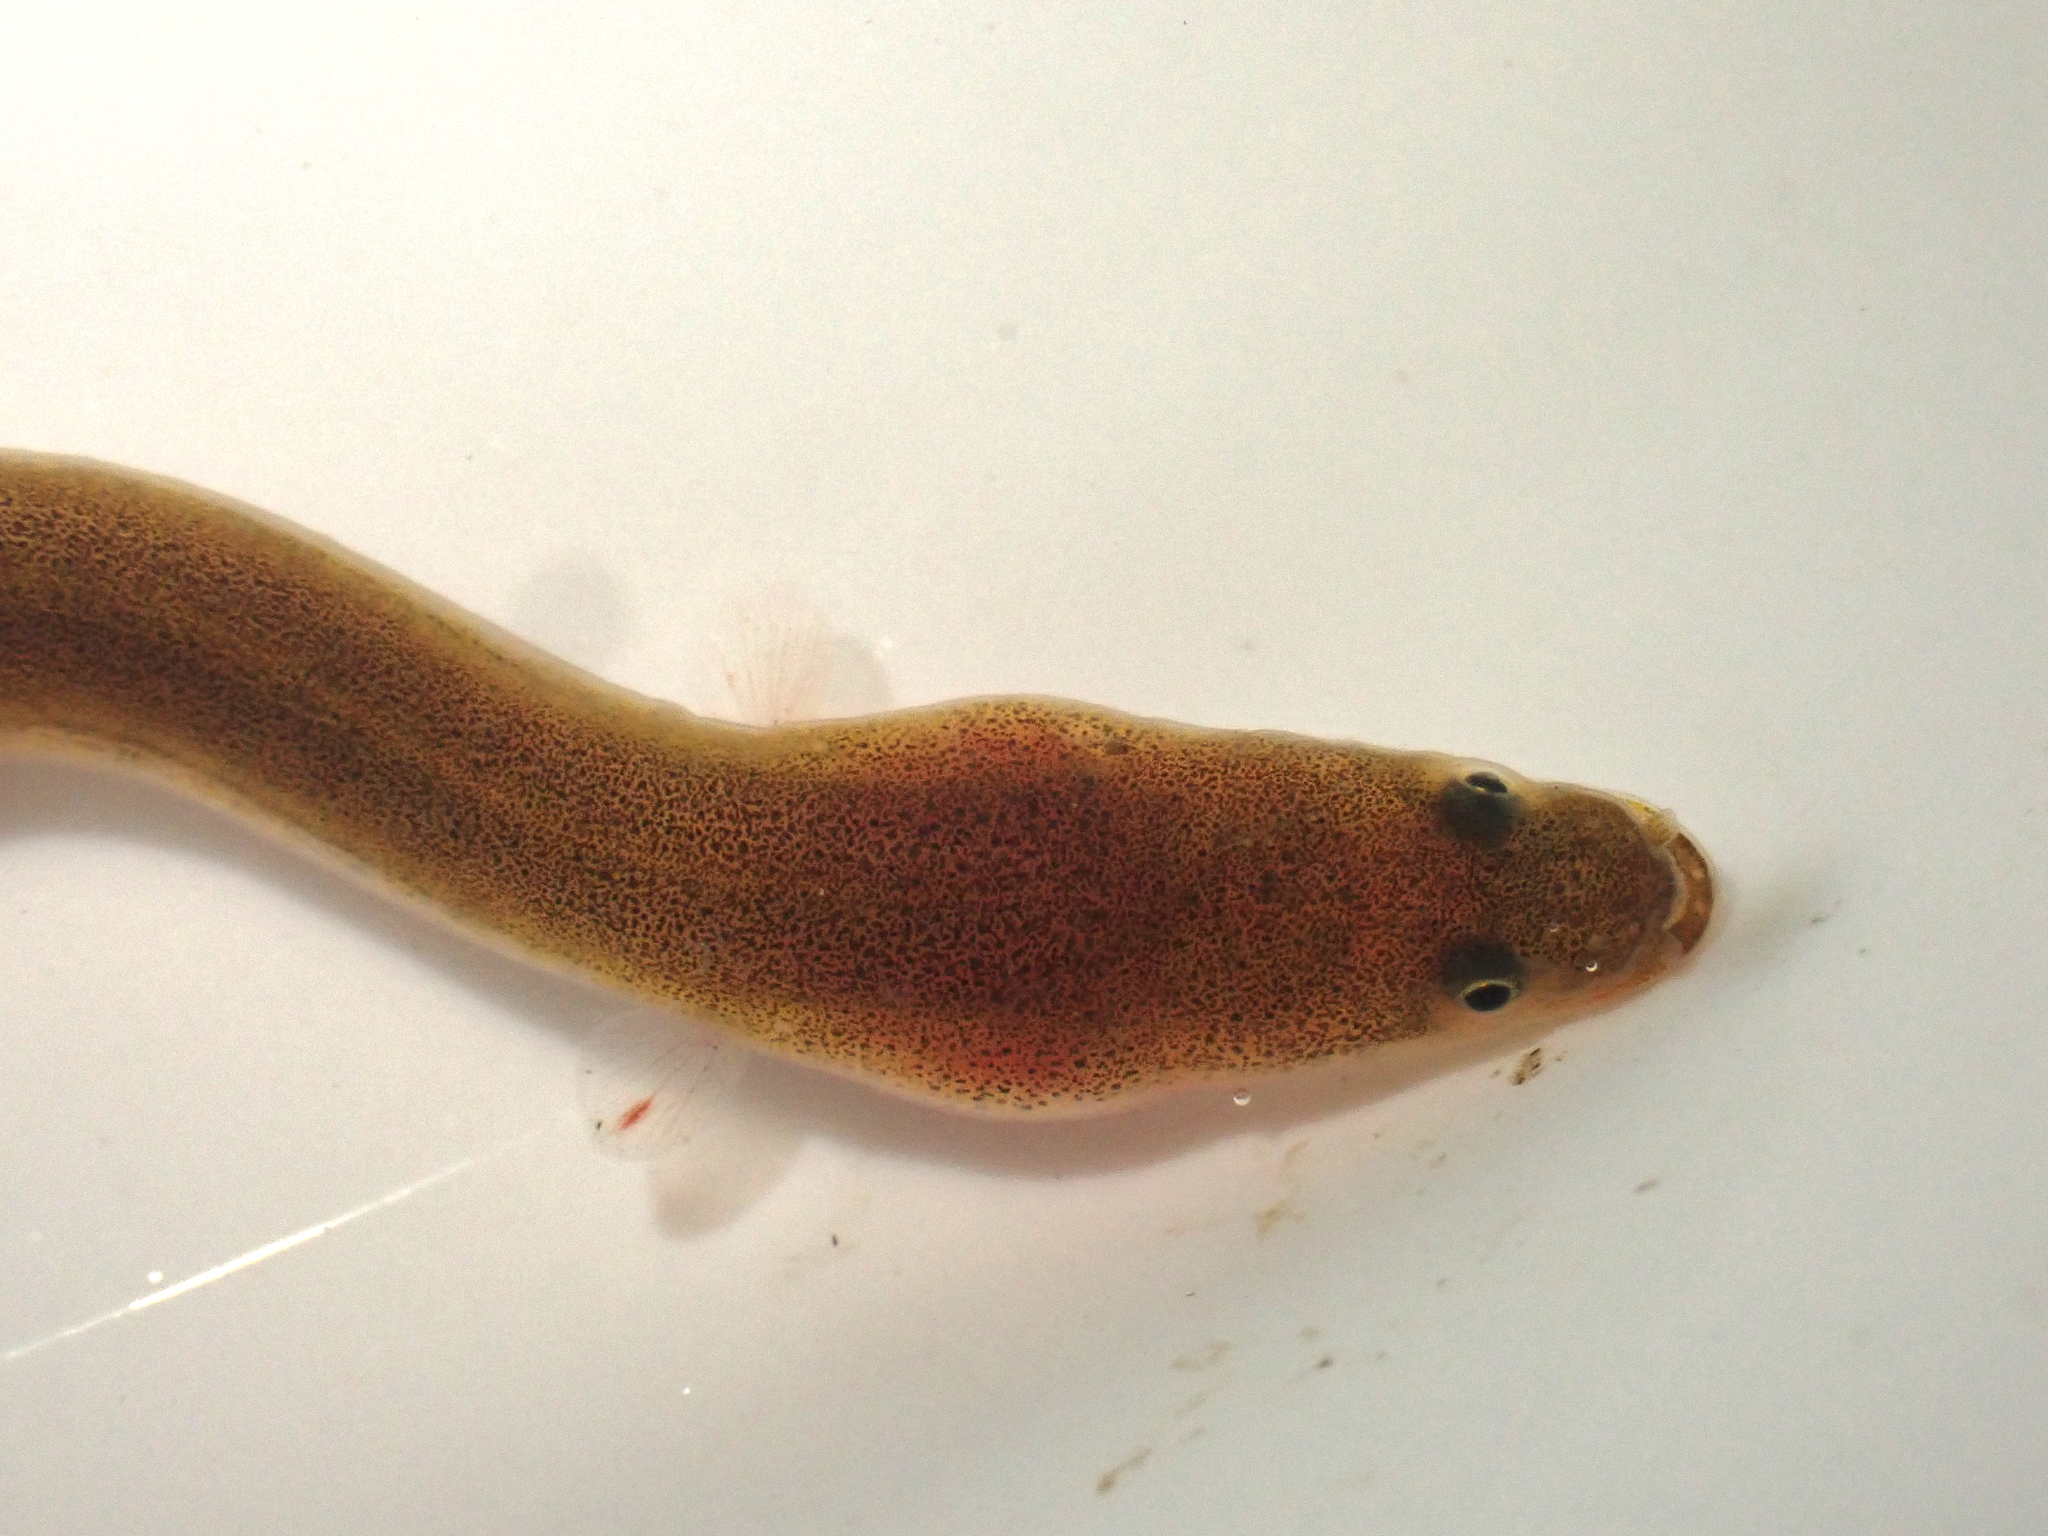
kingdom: Animalia
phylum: Chordata
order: Anguilliformes
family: Anguillidae
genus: Anguilla
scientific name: Anguilla australis
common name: Shortfin eel
